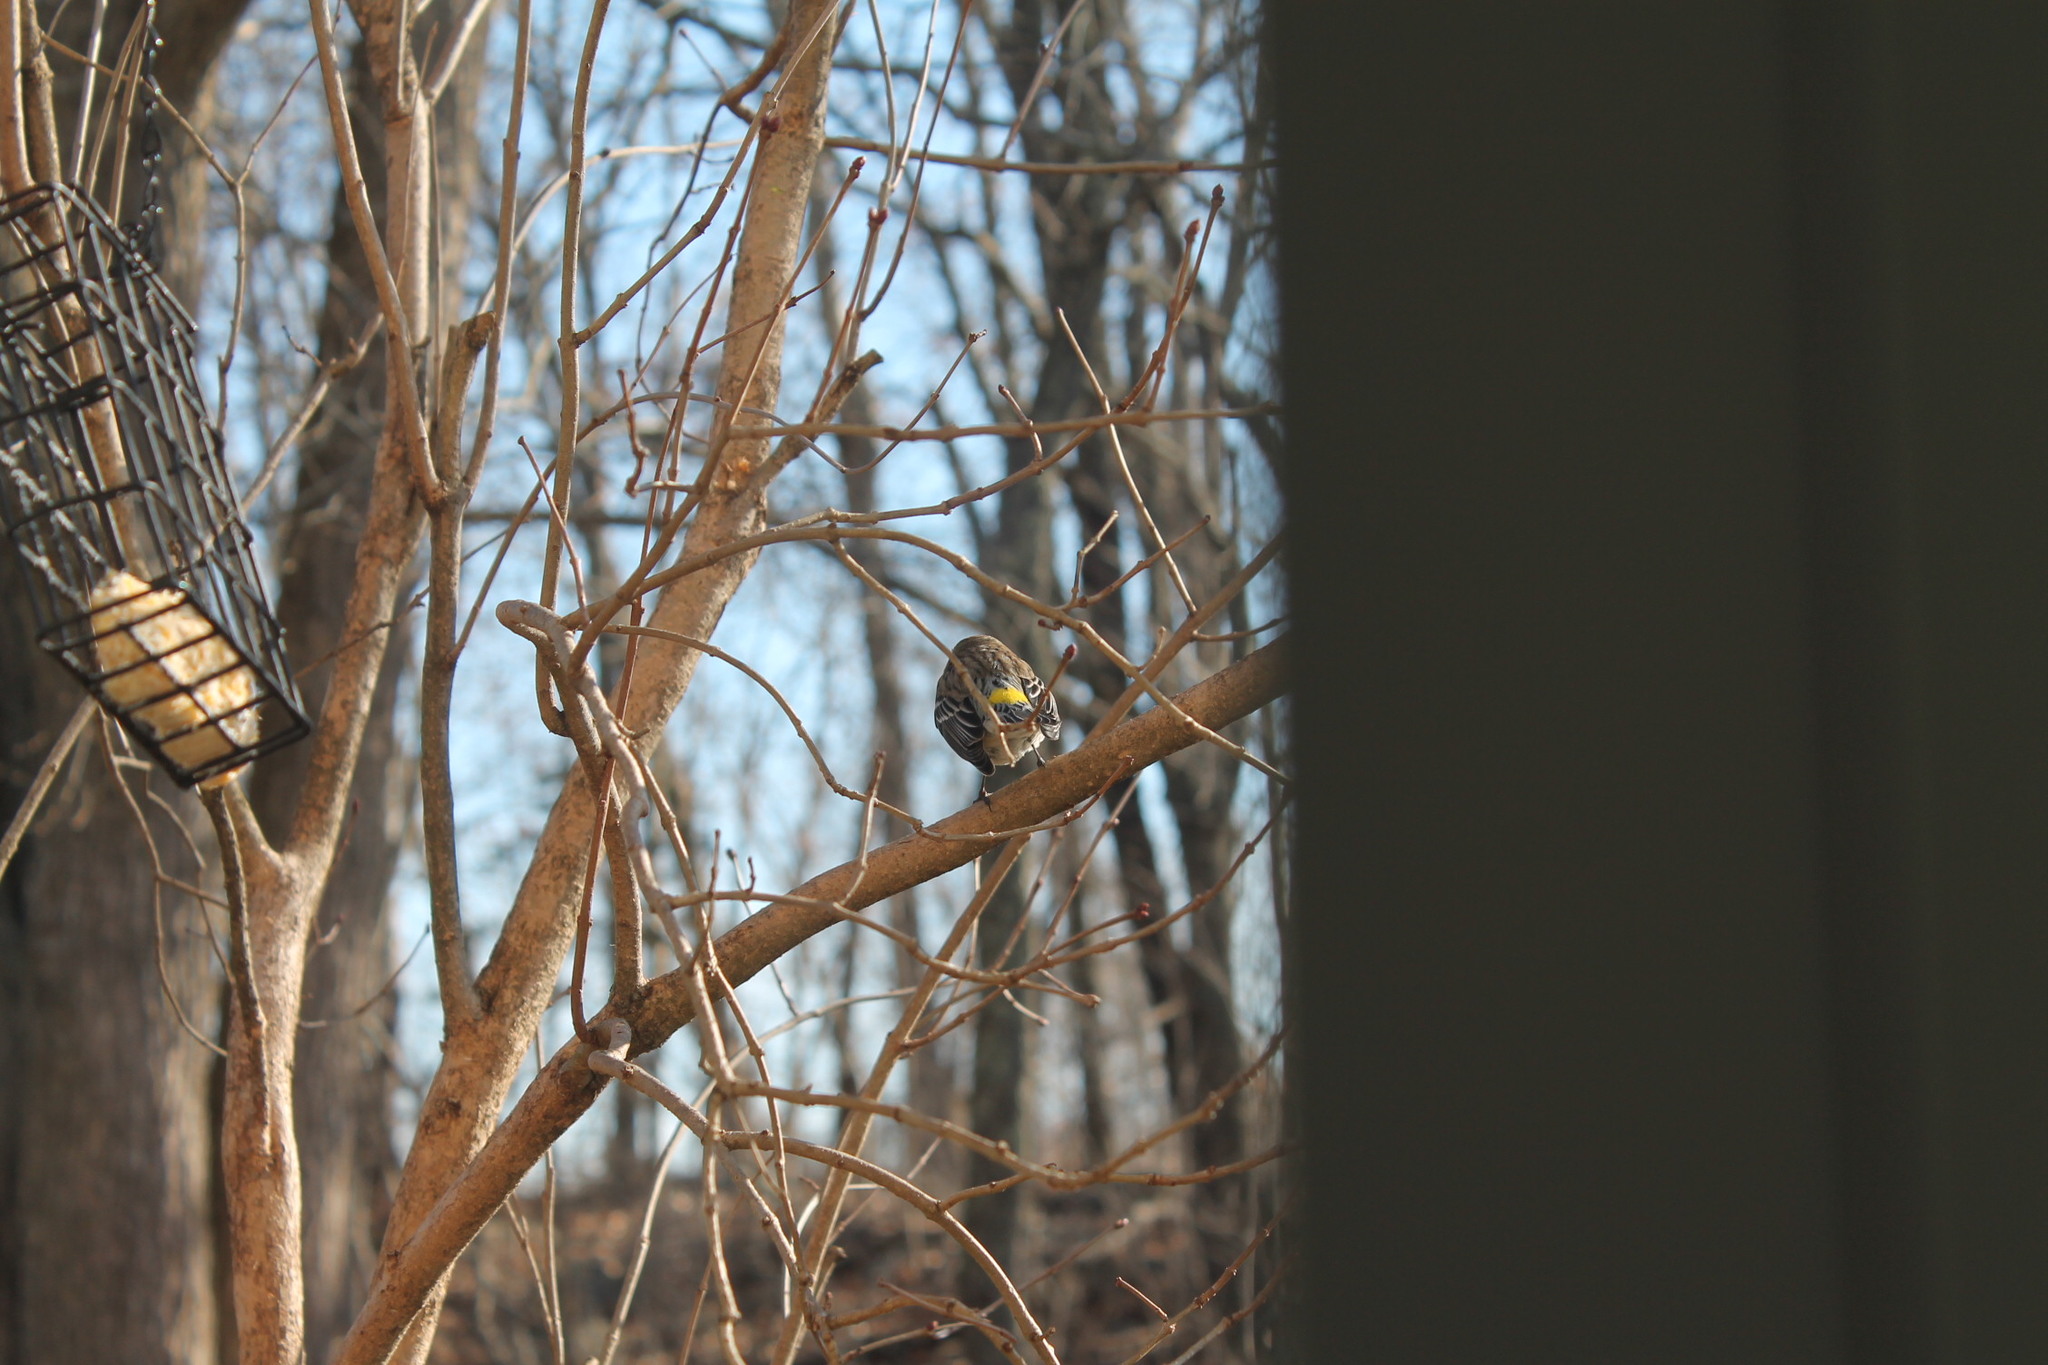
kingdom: Animalia
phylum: Chordata
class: Aves
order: Passeriformes
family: Parulidae
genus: Setophaga
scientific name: Setophaga coronata
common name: Myrtle warbler
